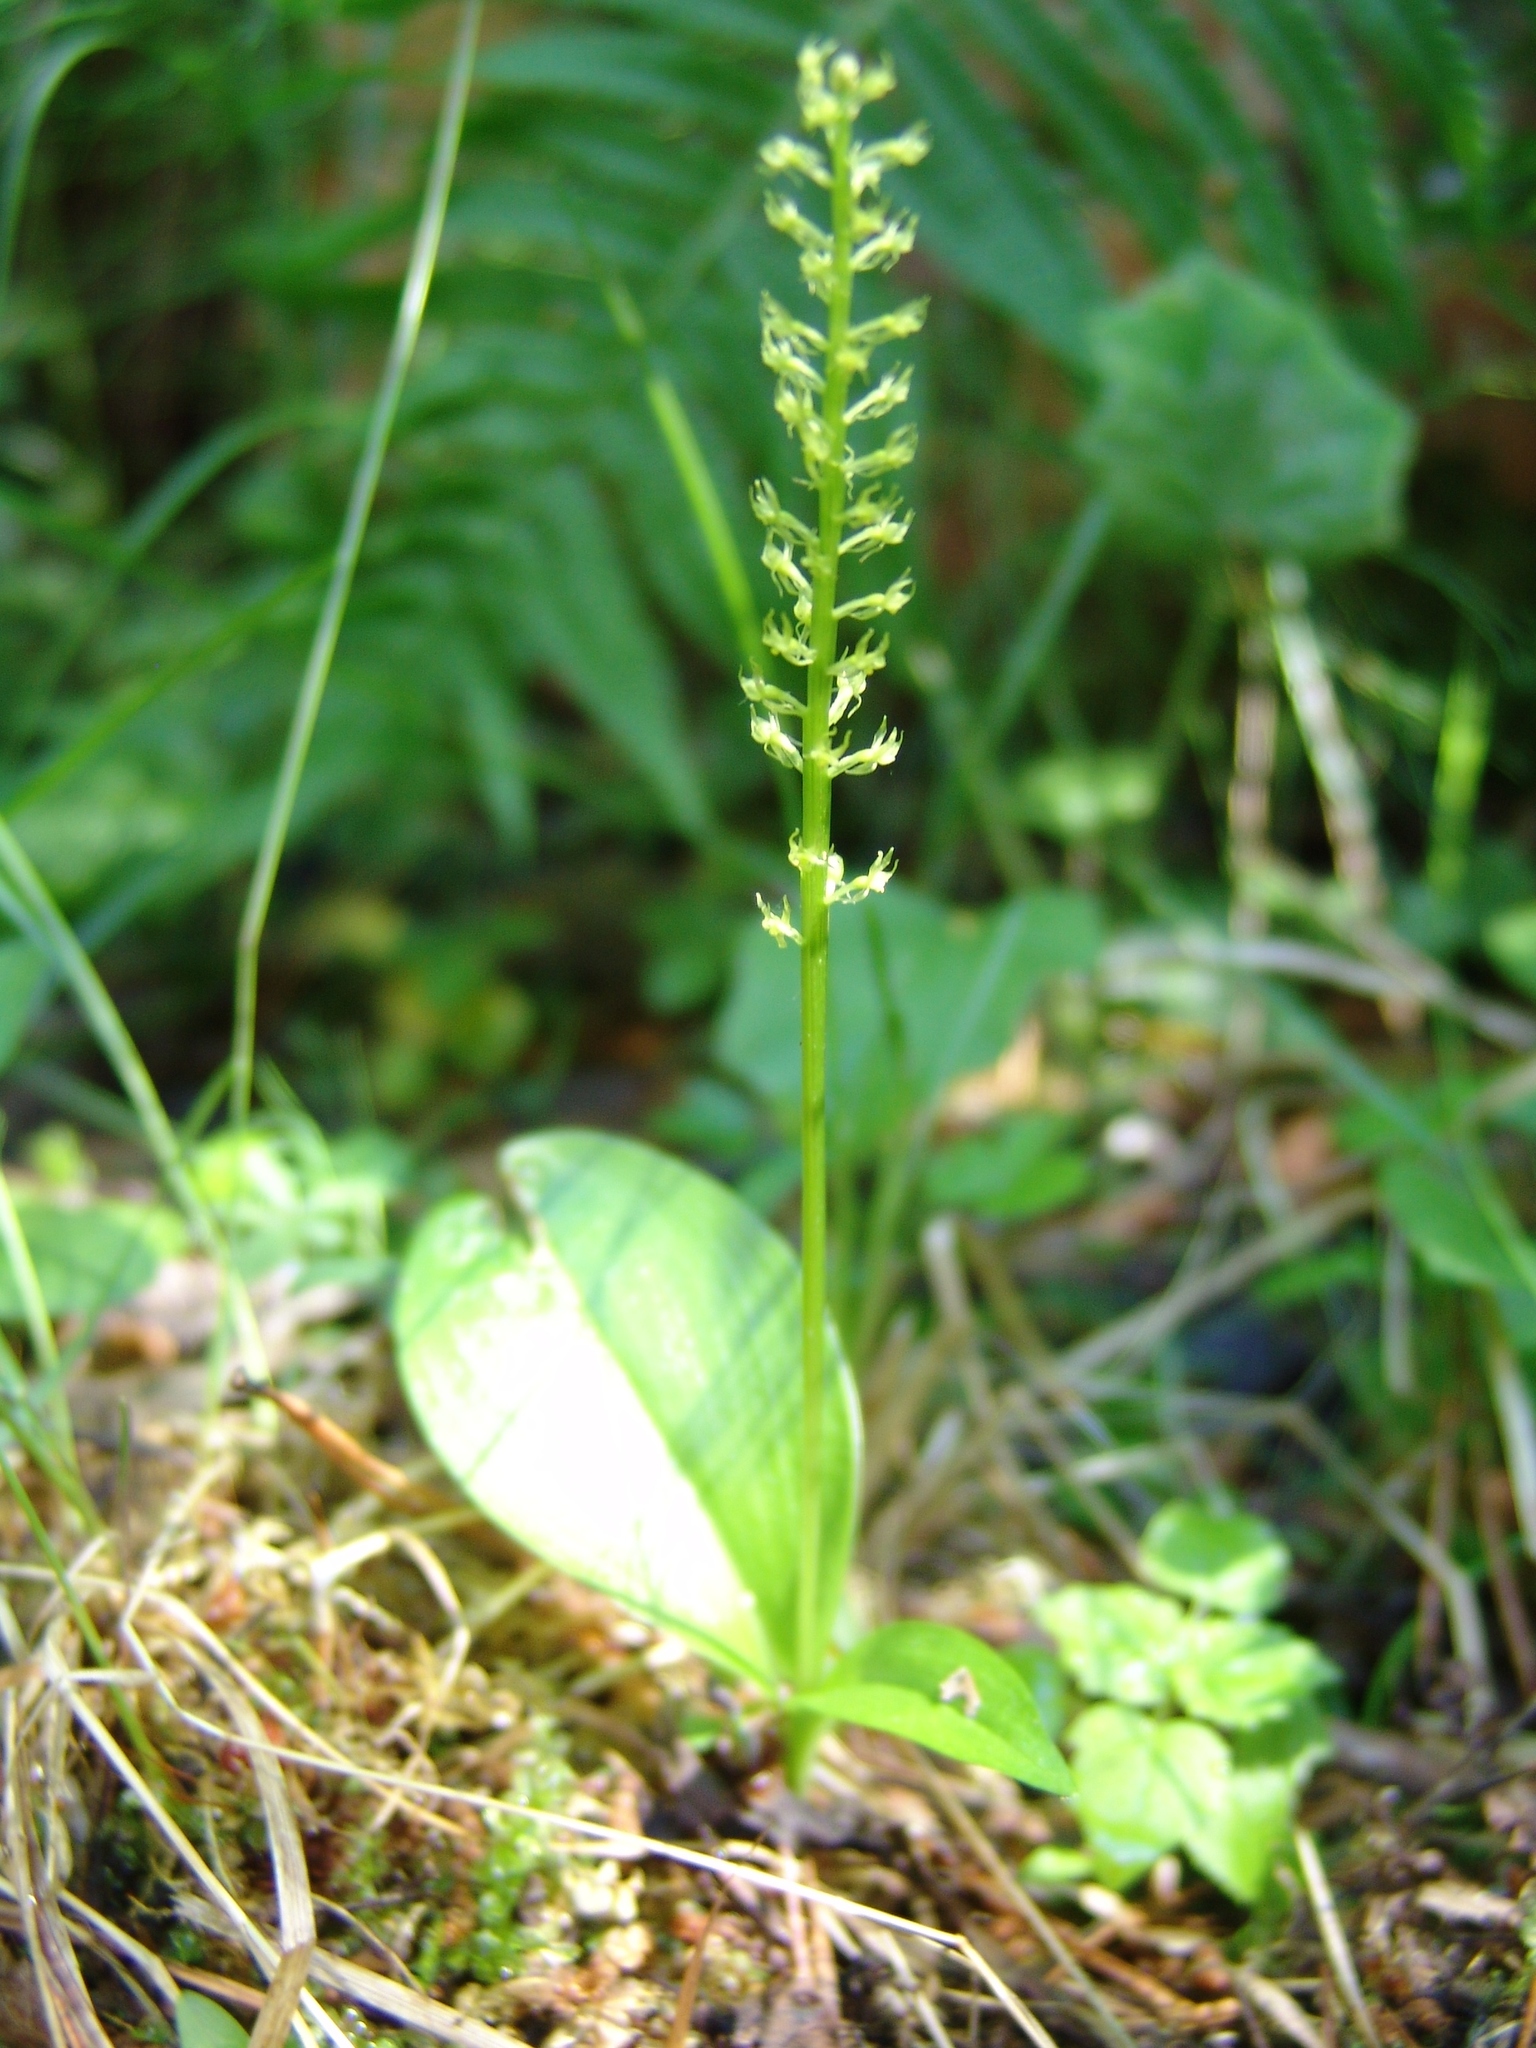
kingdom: Plantae
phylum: Tracheophyta
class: Liliopsida
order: Asparagales
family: Orchidaceae
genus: Malaxis
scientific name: Malaxis monophyllos
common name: White adder's-mouth
